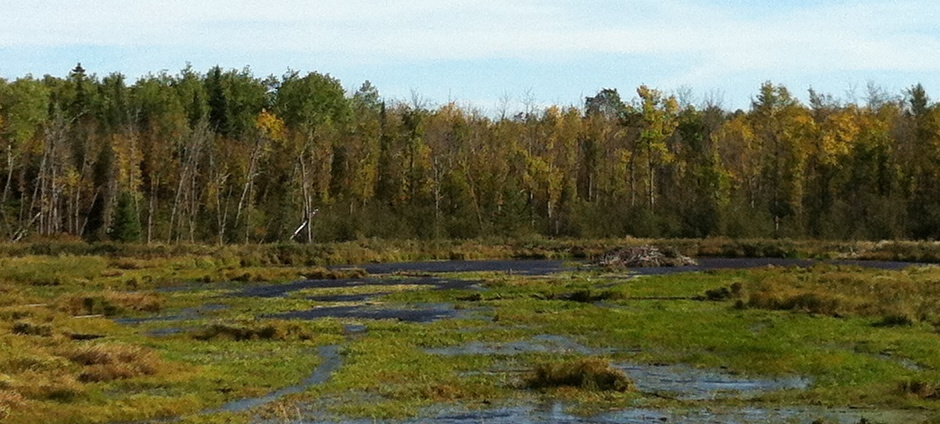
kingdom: Animalia
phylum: Chordata
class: Mammalia
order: Rodentia
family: Castoridae
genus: Castor
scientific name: Castor canadensis
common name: American beaver
